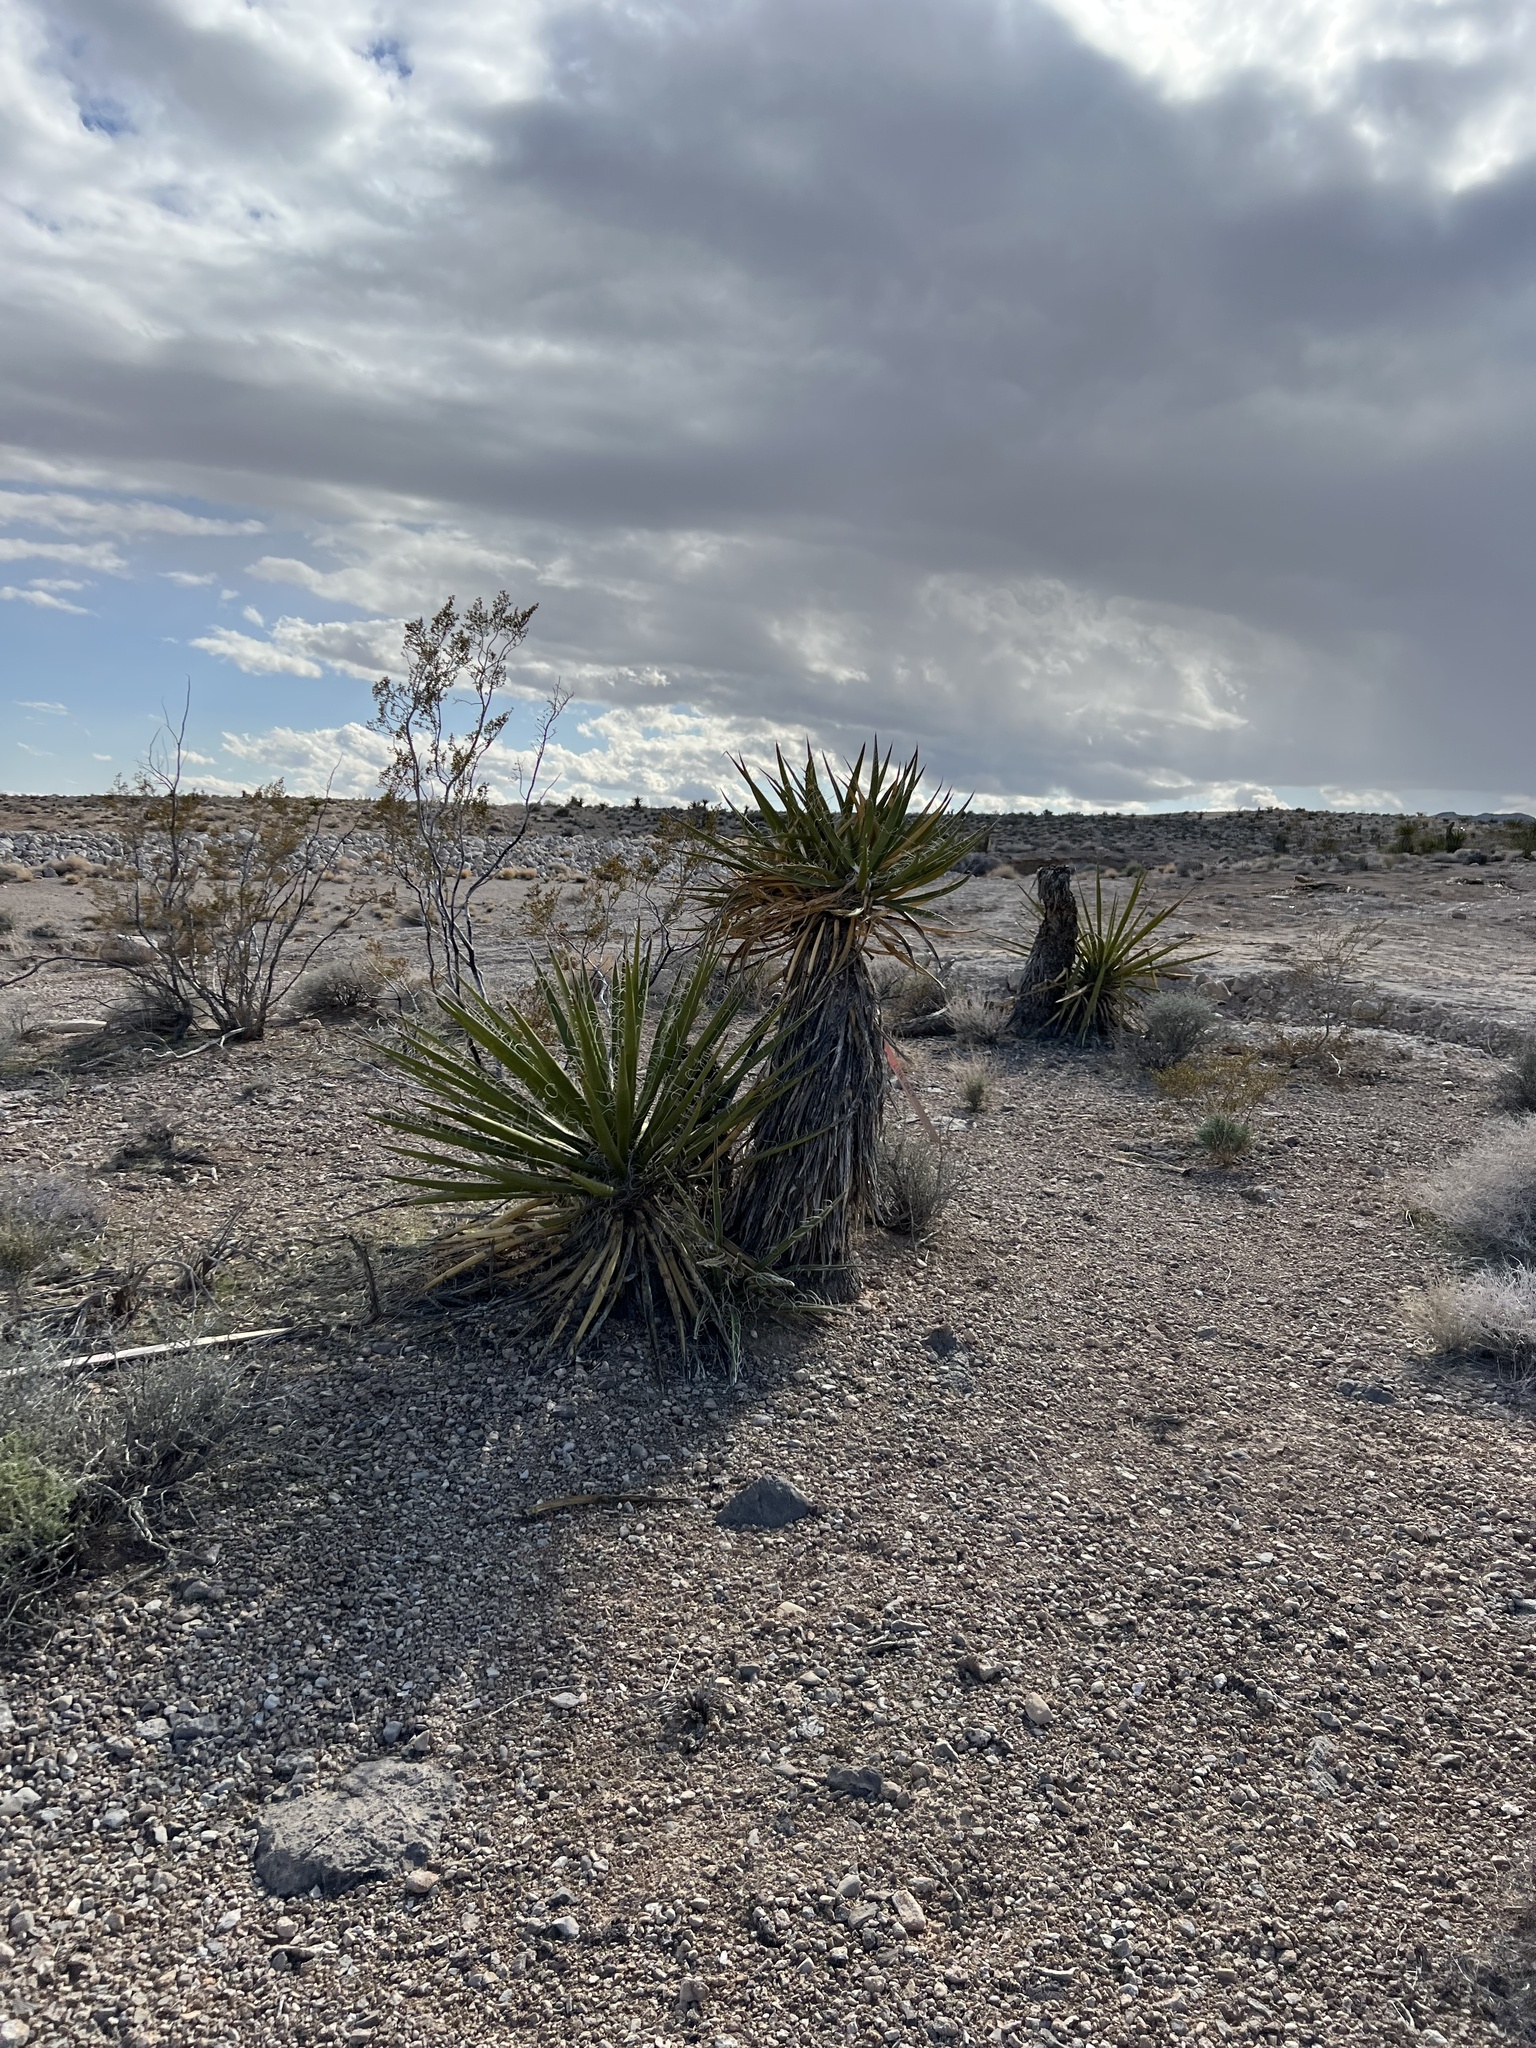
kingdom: Plantae
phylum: Tracheophyta
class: Liliopsida
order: Asparagales
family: Asparagaceae
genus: Yucca
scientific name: Yucca schidigera
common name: Mojave yucca
